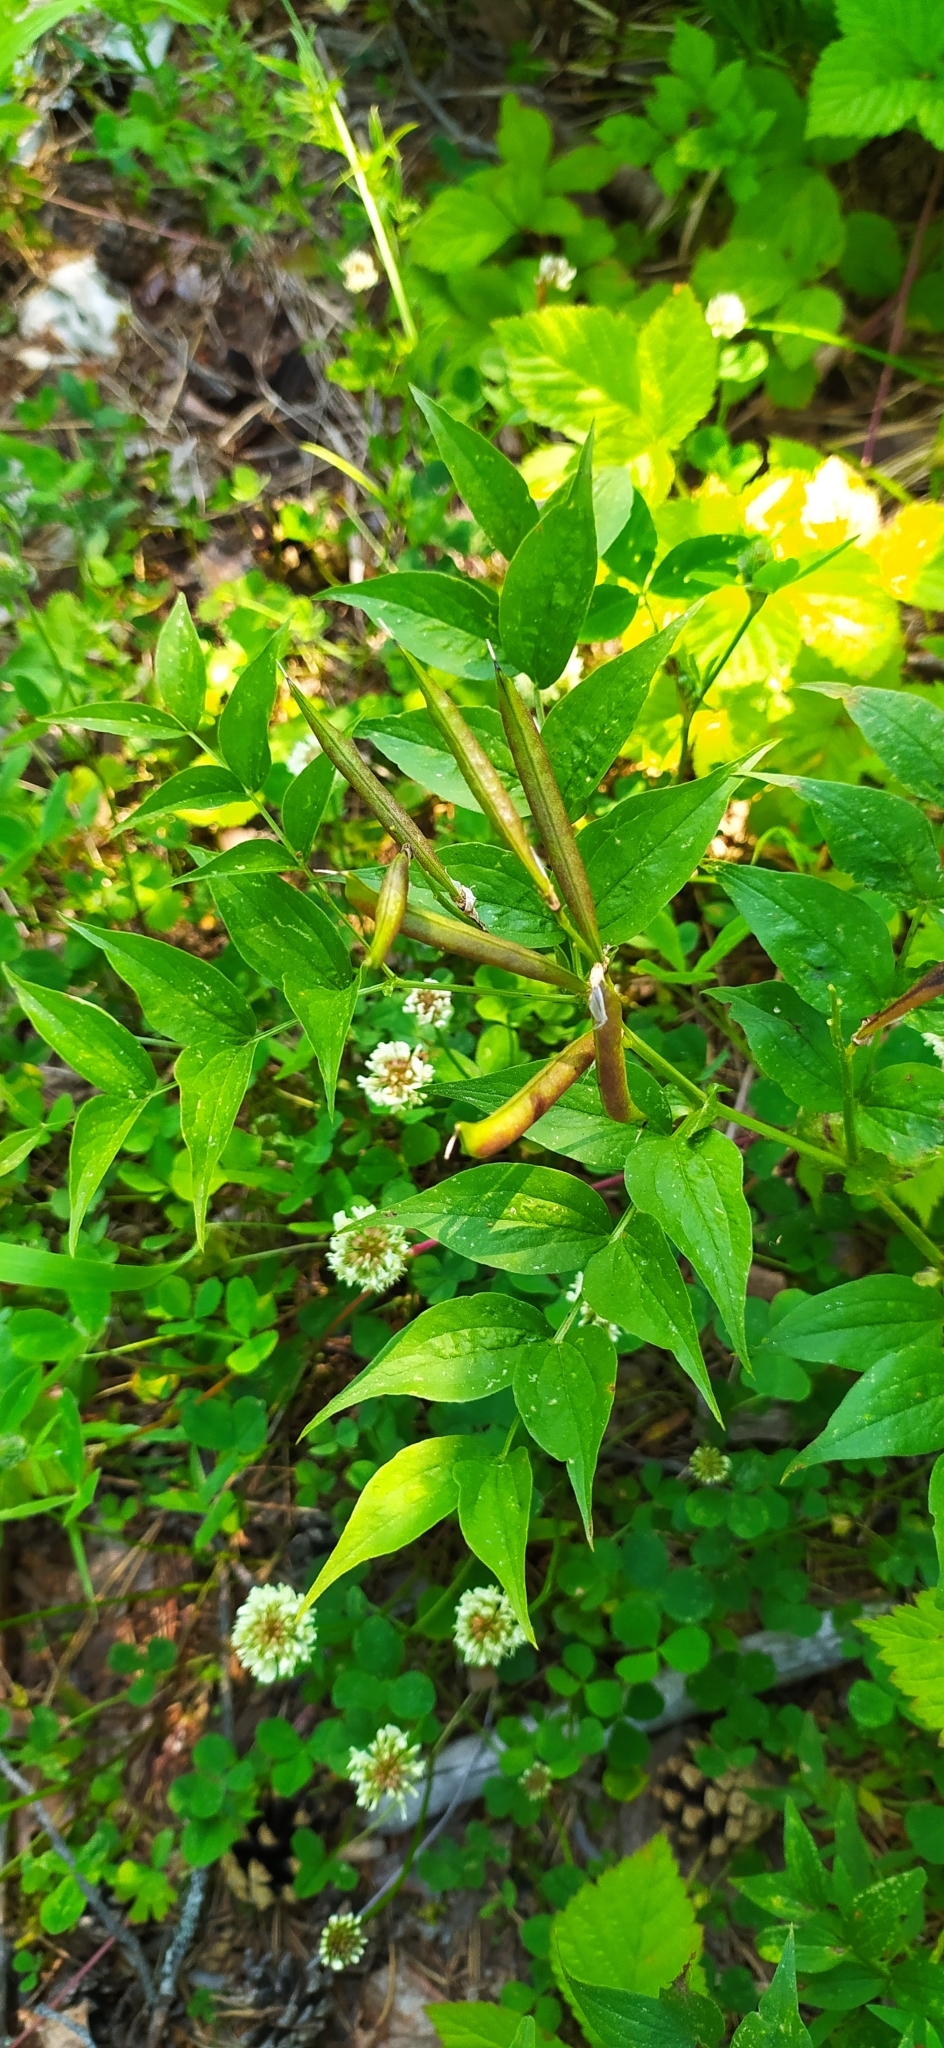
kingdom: Plantae
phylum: Tracheophyta
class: Magnoliopsida
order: Fabales
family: Fabaceae
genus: Lathyrus
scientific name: Lathyrus vernus
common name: Spring pea
